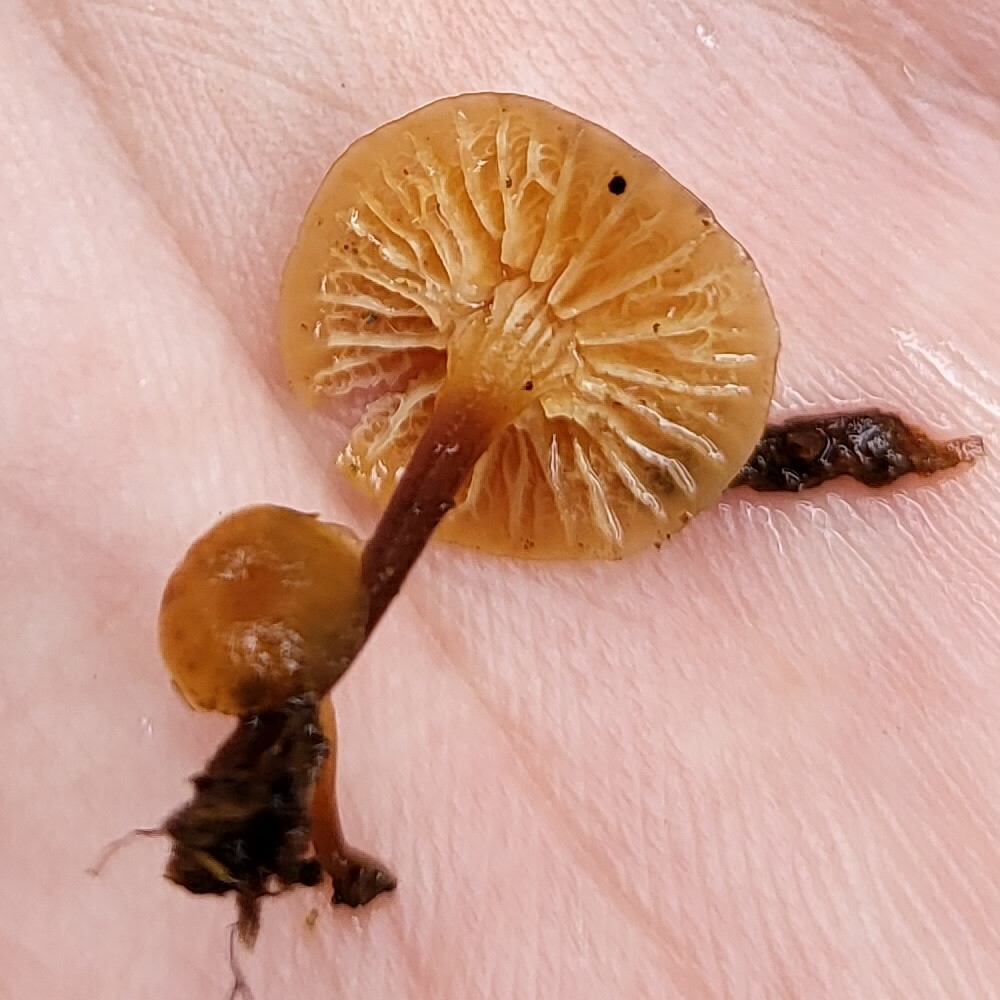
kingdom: Fungi
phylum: Basidiomycota
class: Agaricomycetes
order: Agaricales
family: Mycenaceae
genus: Xeromphalina
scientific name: Xeromphalina campanella
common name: Pinewood gingertail
